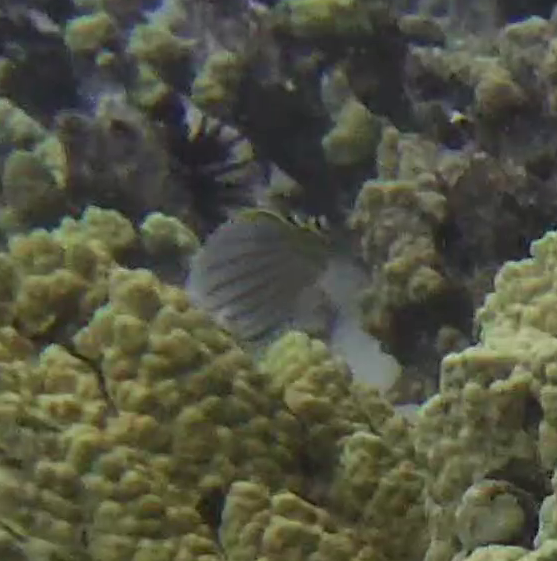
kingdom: Animalia
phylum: Chordata
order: Perciformes
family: Chaetodontidae
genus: Chaetodon
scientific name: Chaetodon ornatissimus
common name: Ornate butterflyfish
